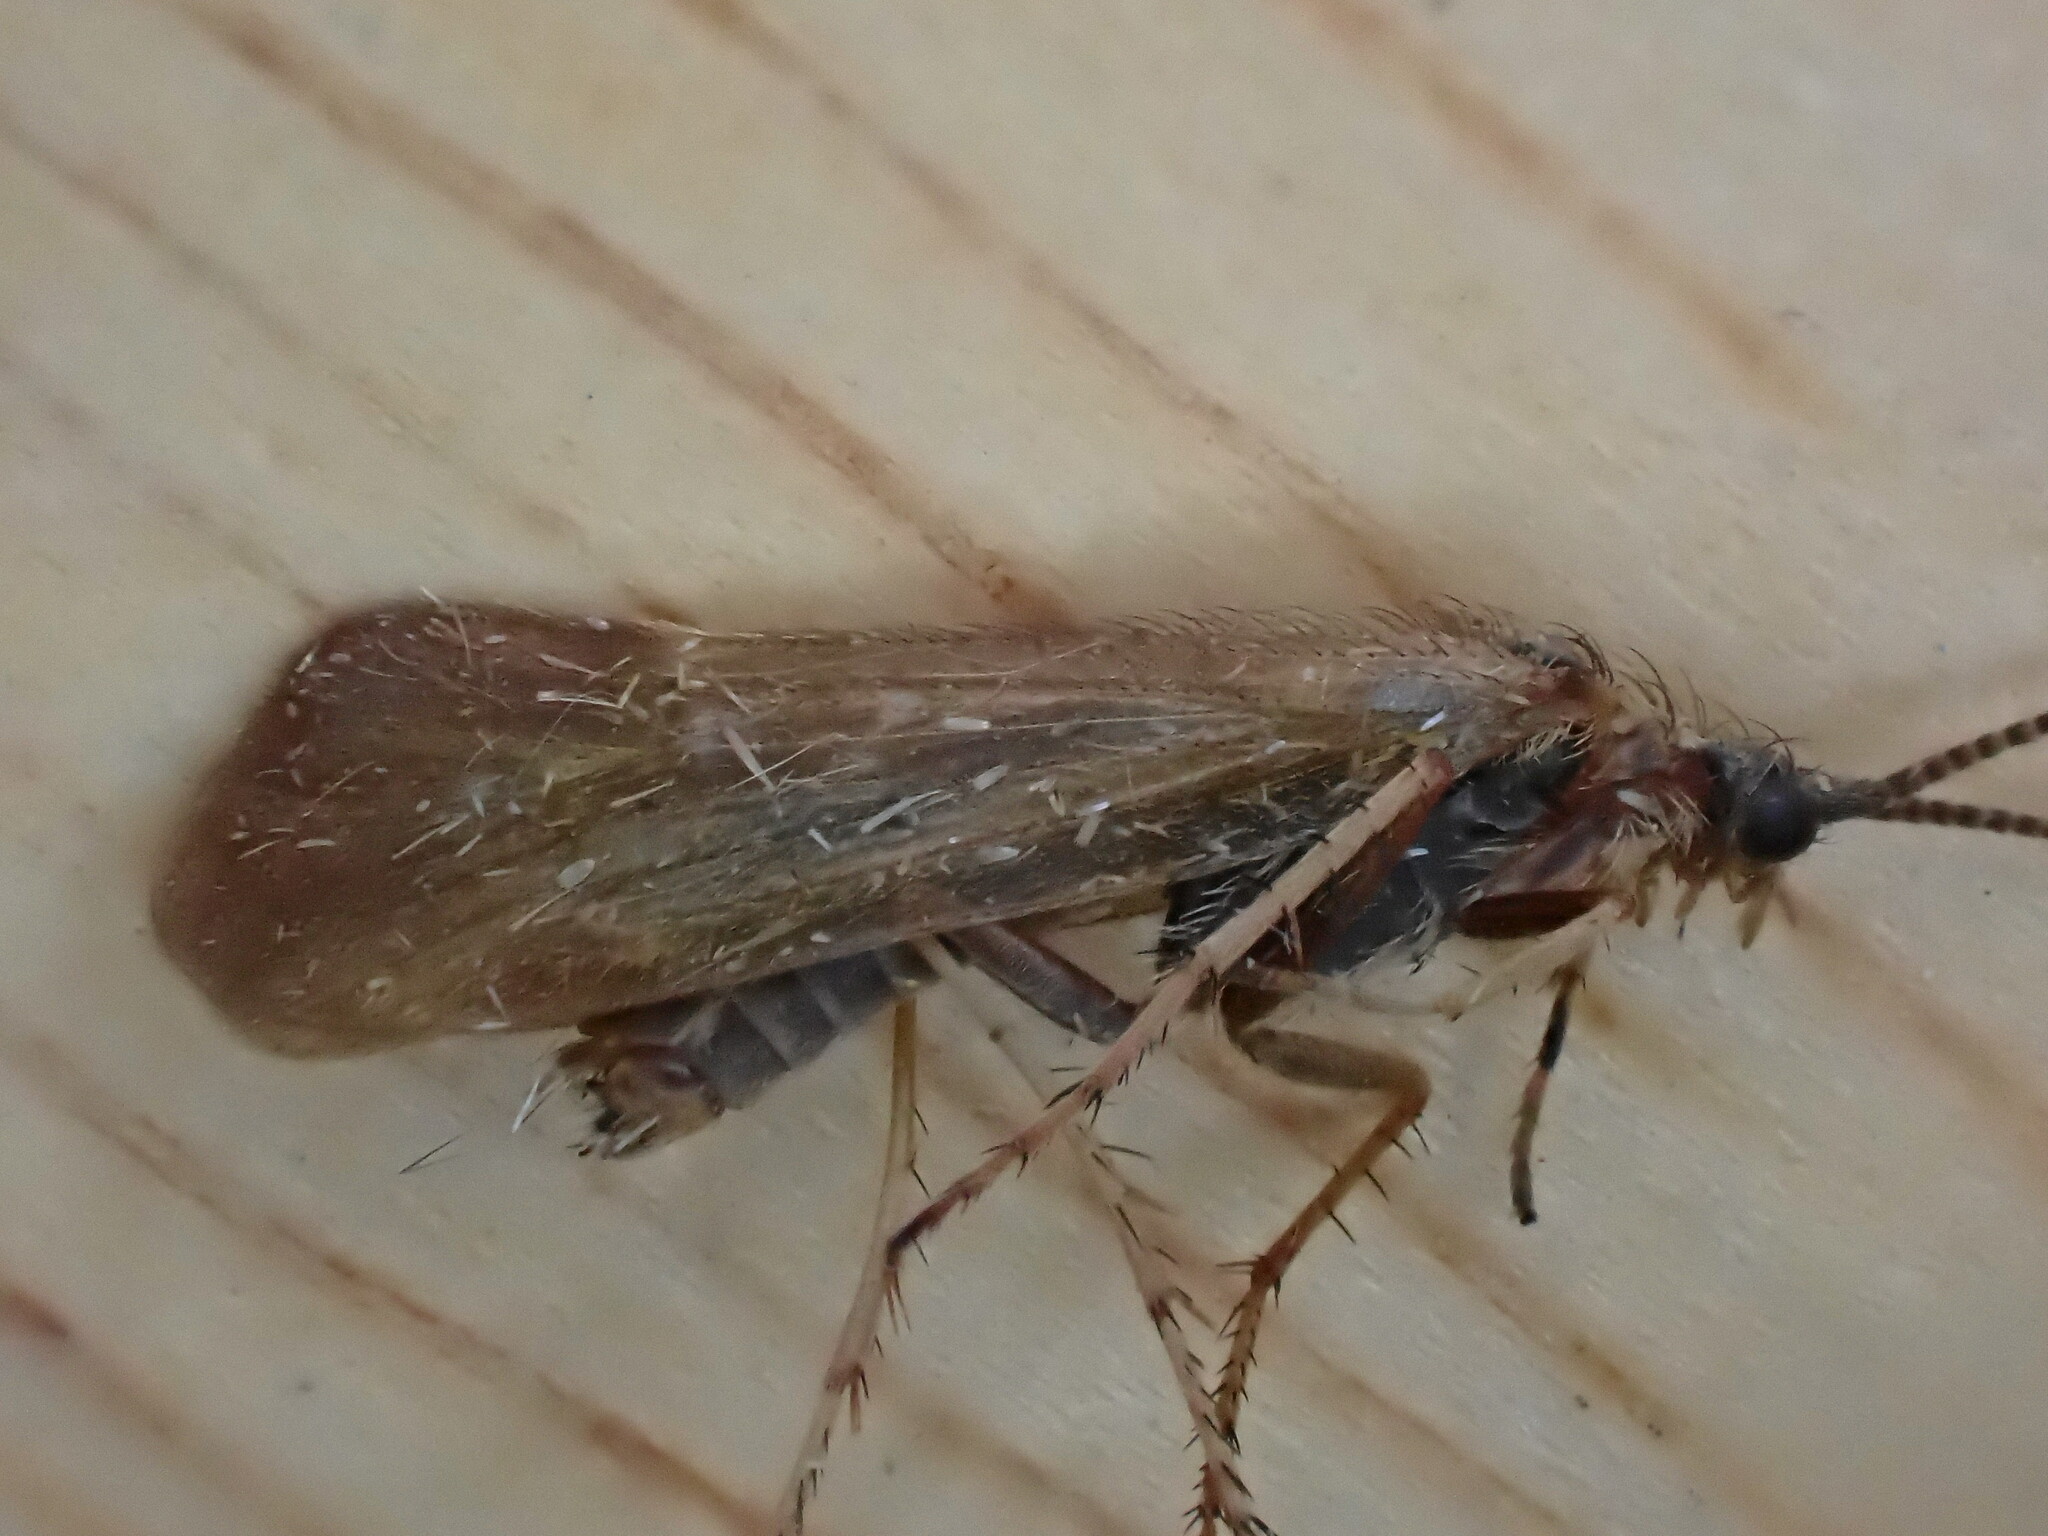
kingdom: Animalia
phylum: Arthropoda
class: Insecta
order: Trichoptera
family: Limnephilidae
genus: Limnephilus
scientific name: Limnephilus auricula
